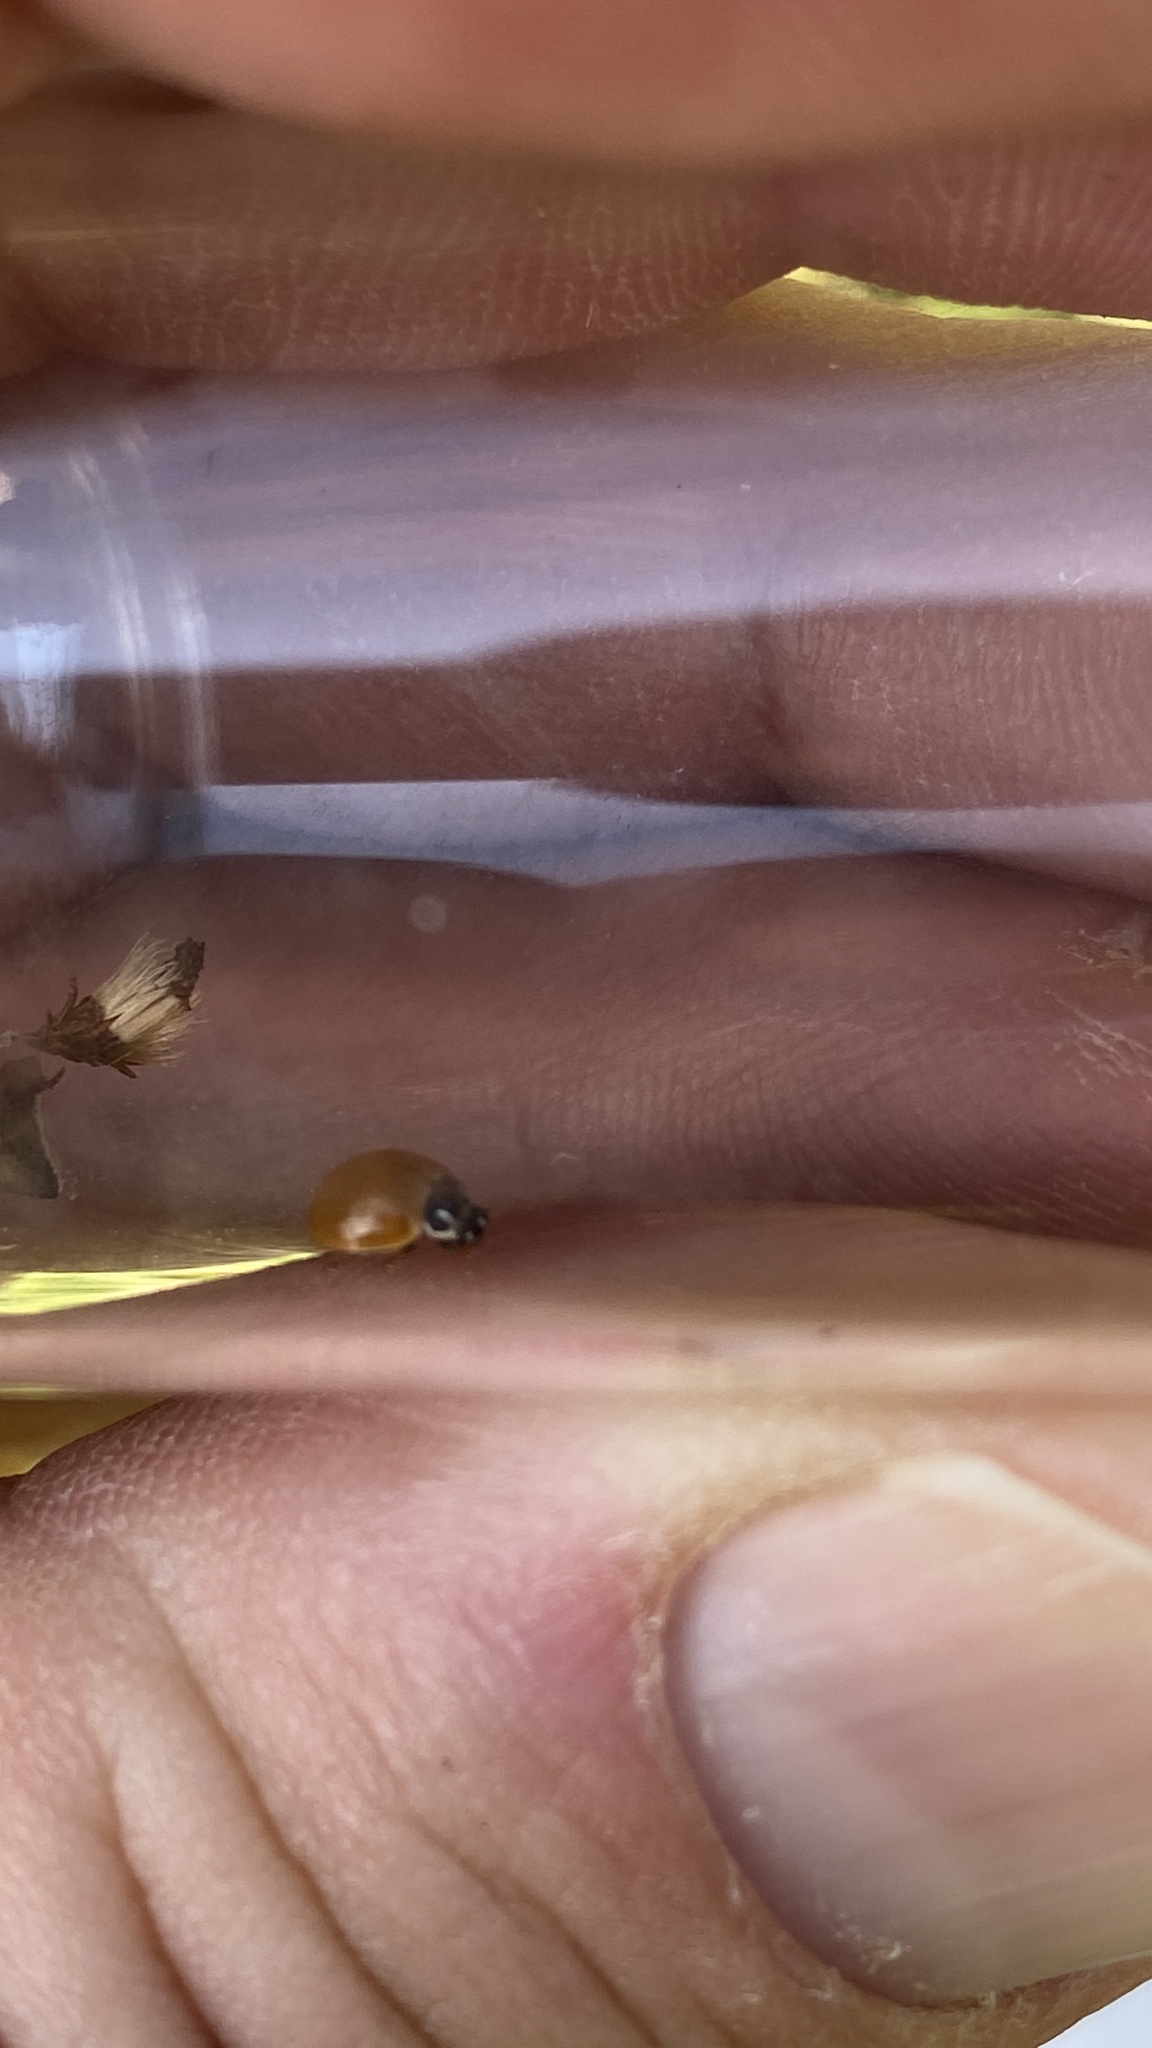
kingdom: Animalia
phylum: Arthropoda
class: Insecta
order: Coleoptera
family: Coccinellidae
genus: Cycloneda
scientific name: Cycloneda munda
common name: Polished lady beetle
